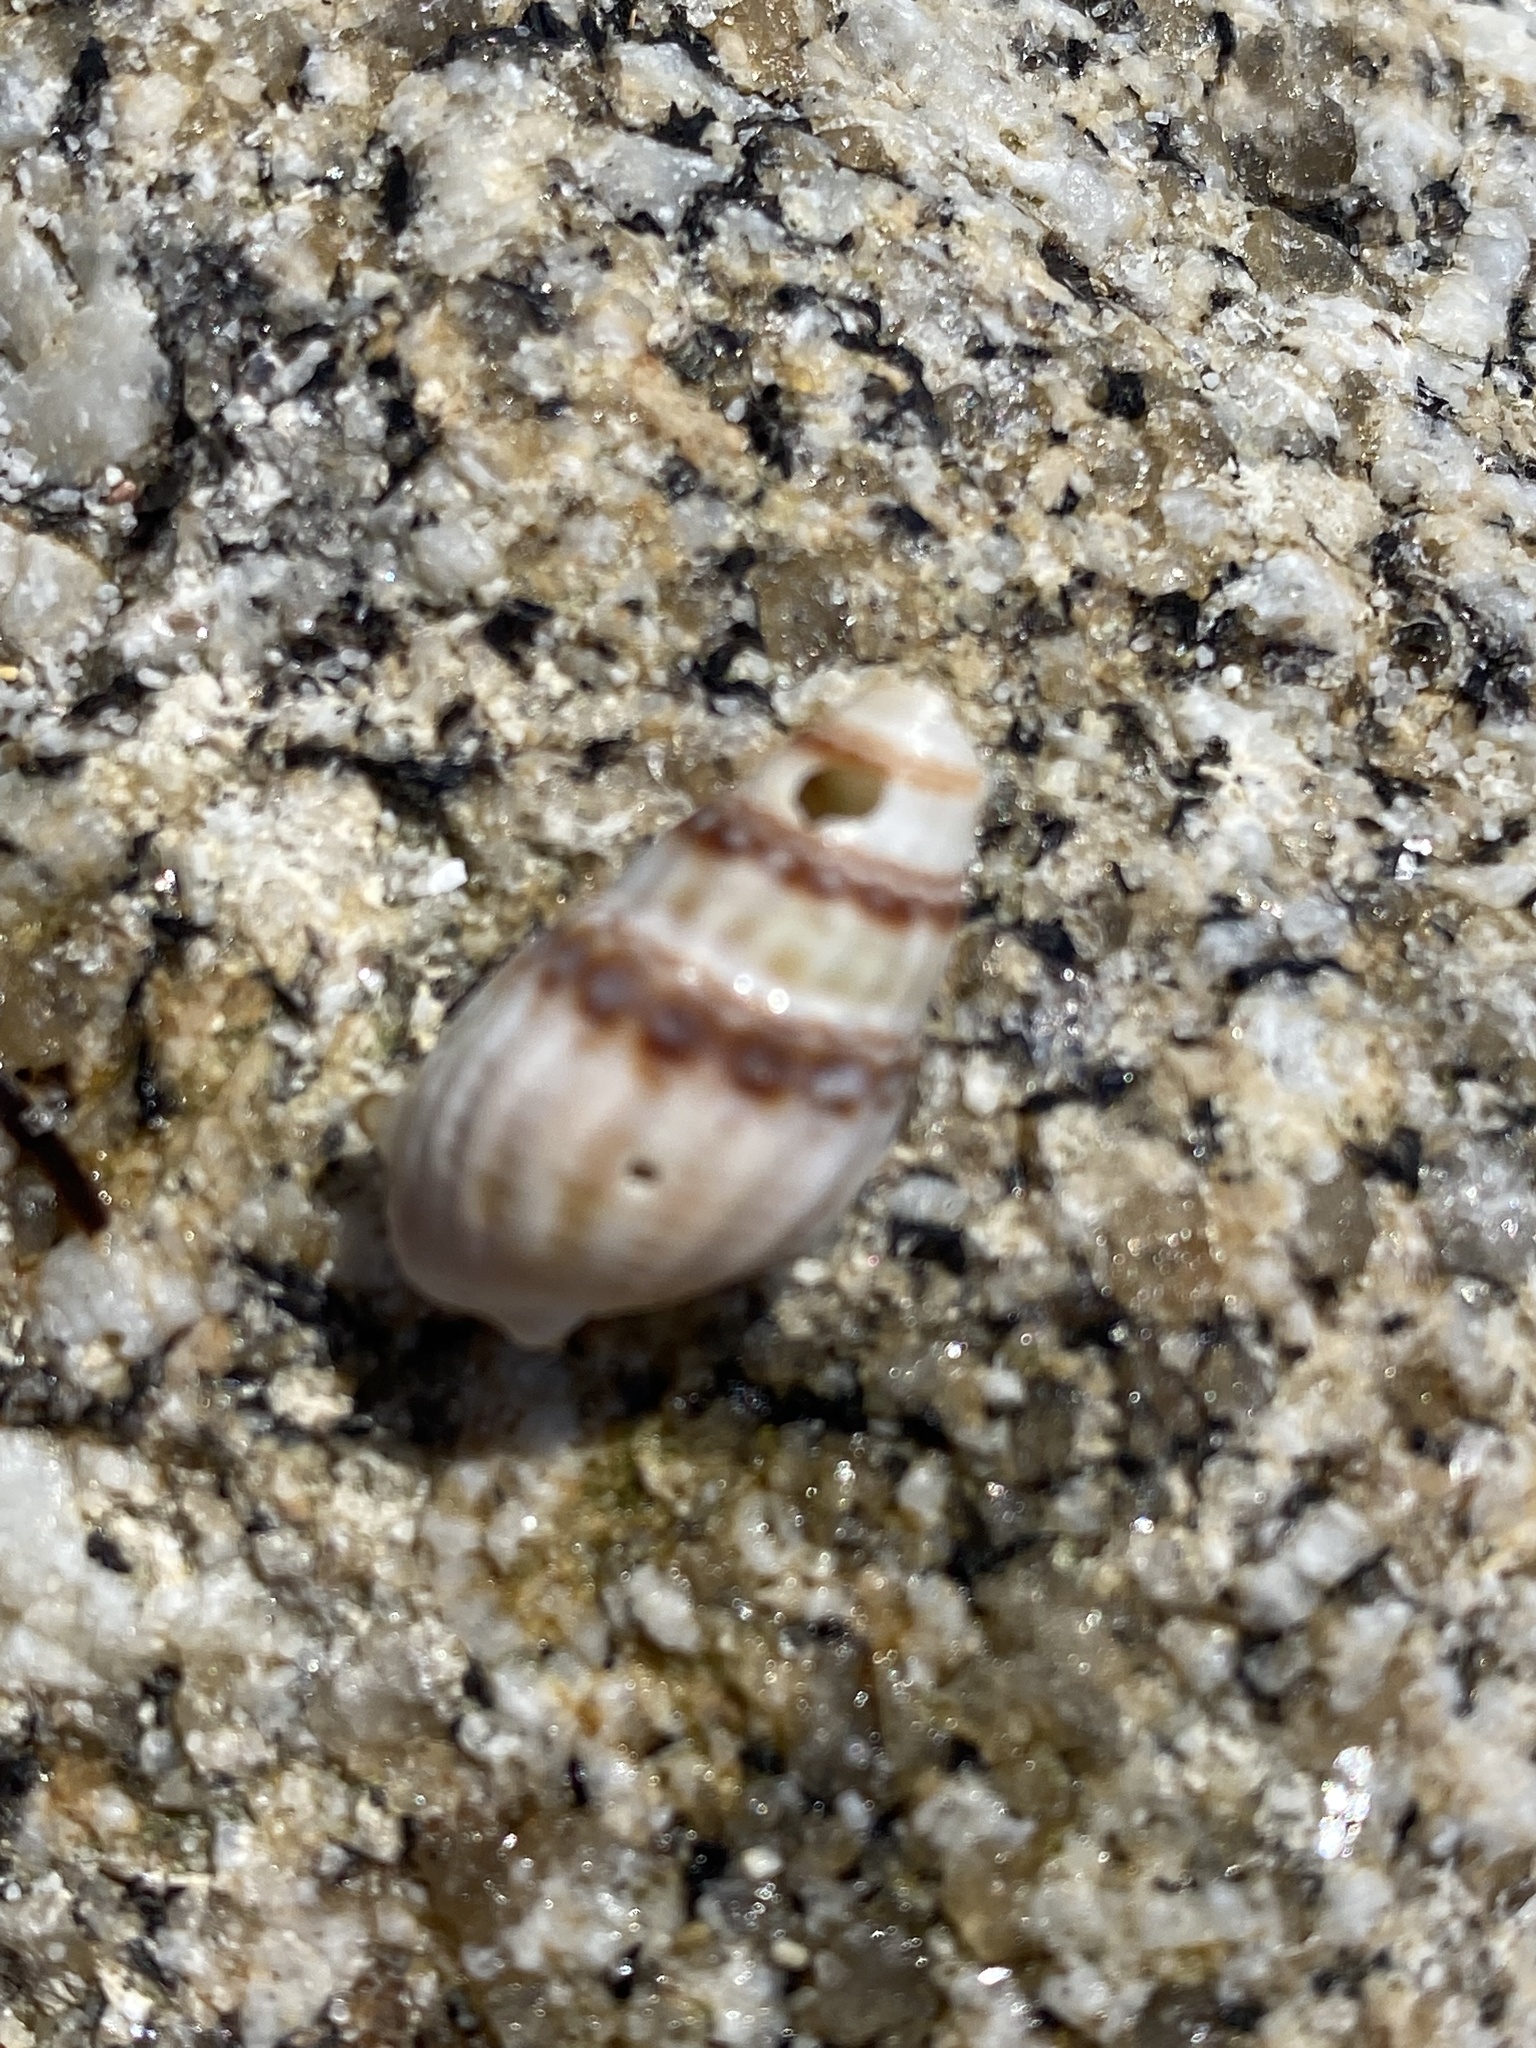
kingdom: Animalia
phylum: Mollusca
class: Gastropoda
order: Neogastropoda
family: Nassariidae
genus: Tritia
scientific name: Tritia reticulata
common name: Netted dog whelk
